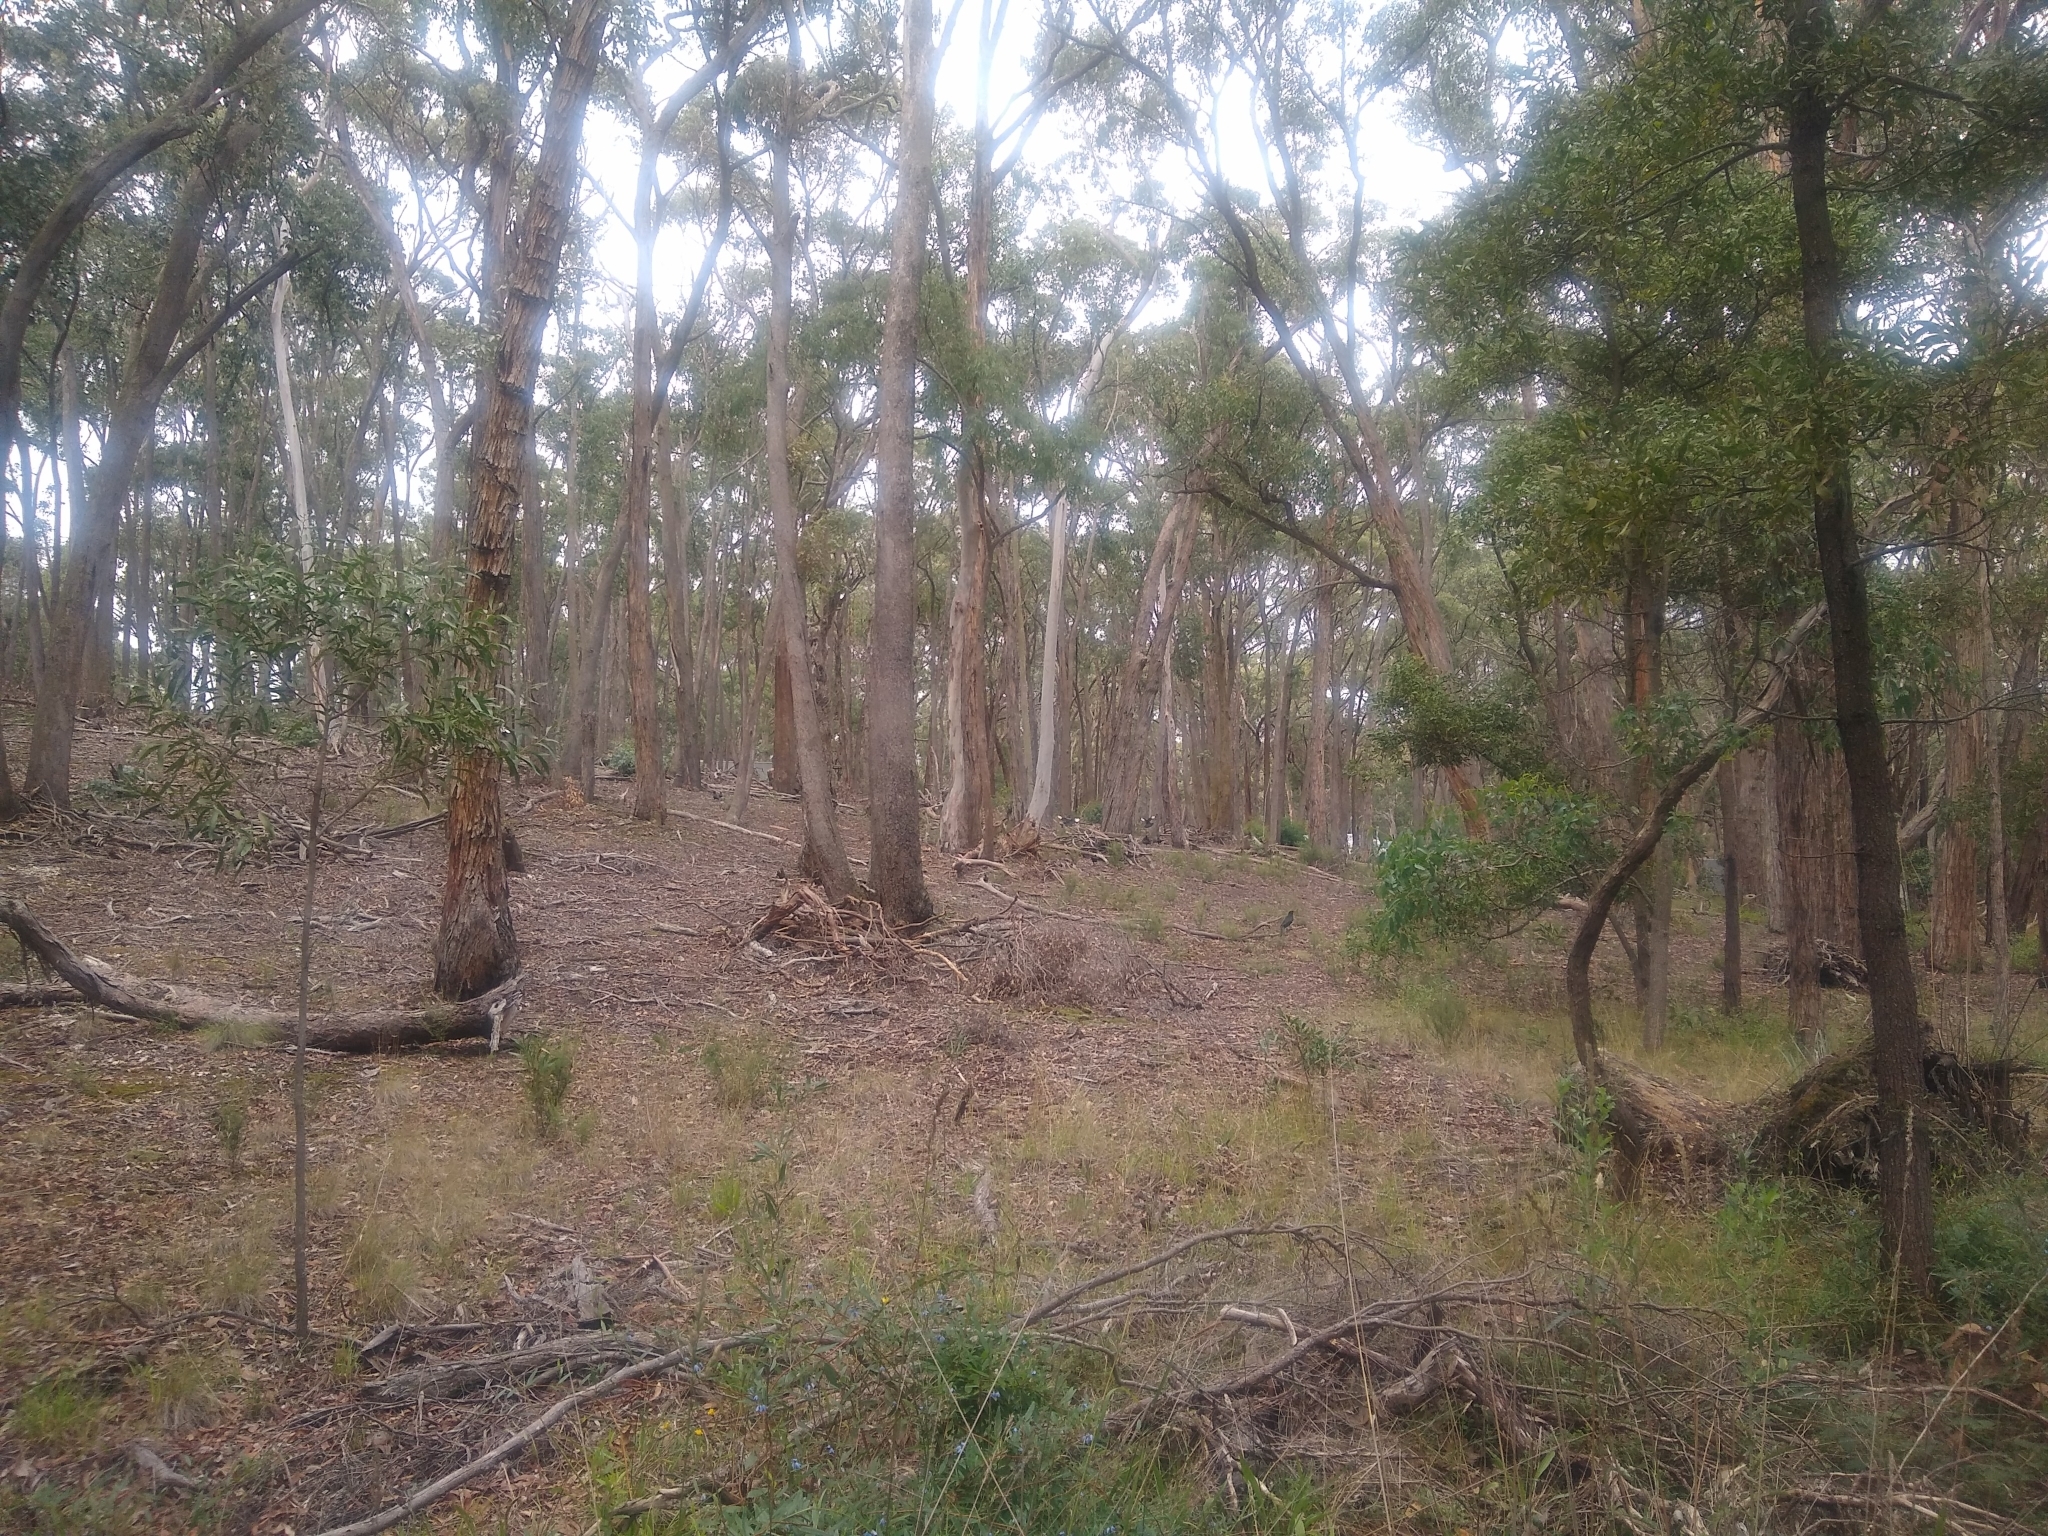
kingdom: Animalia
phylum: Chordata
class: Aves
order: Passeriformes
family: Corcoracidae
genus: Corcorax
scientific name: Corcorax melanoramphos
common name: White-winged chough
